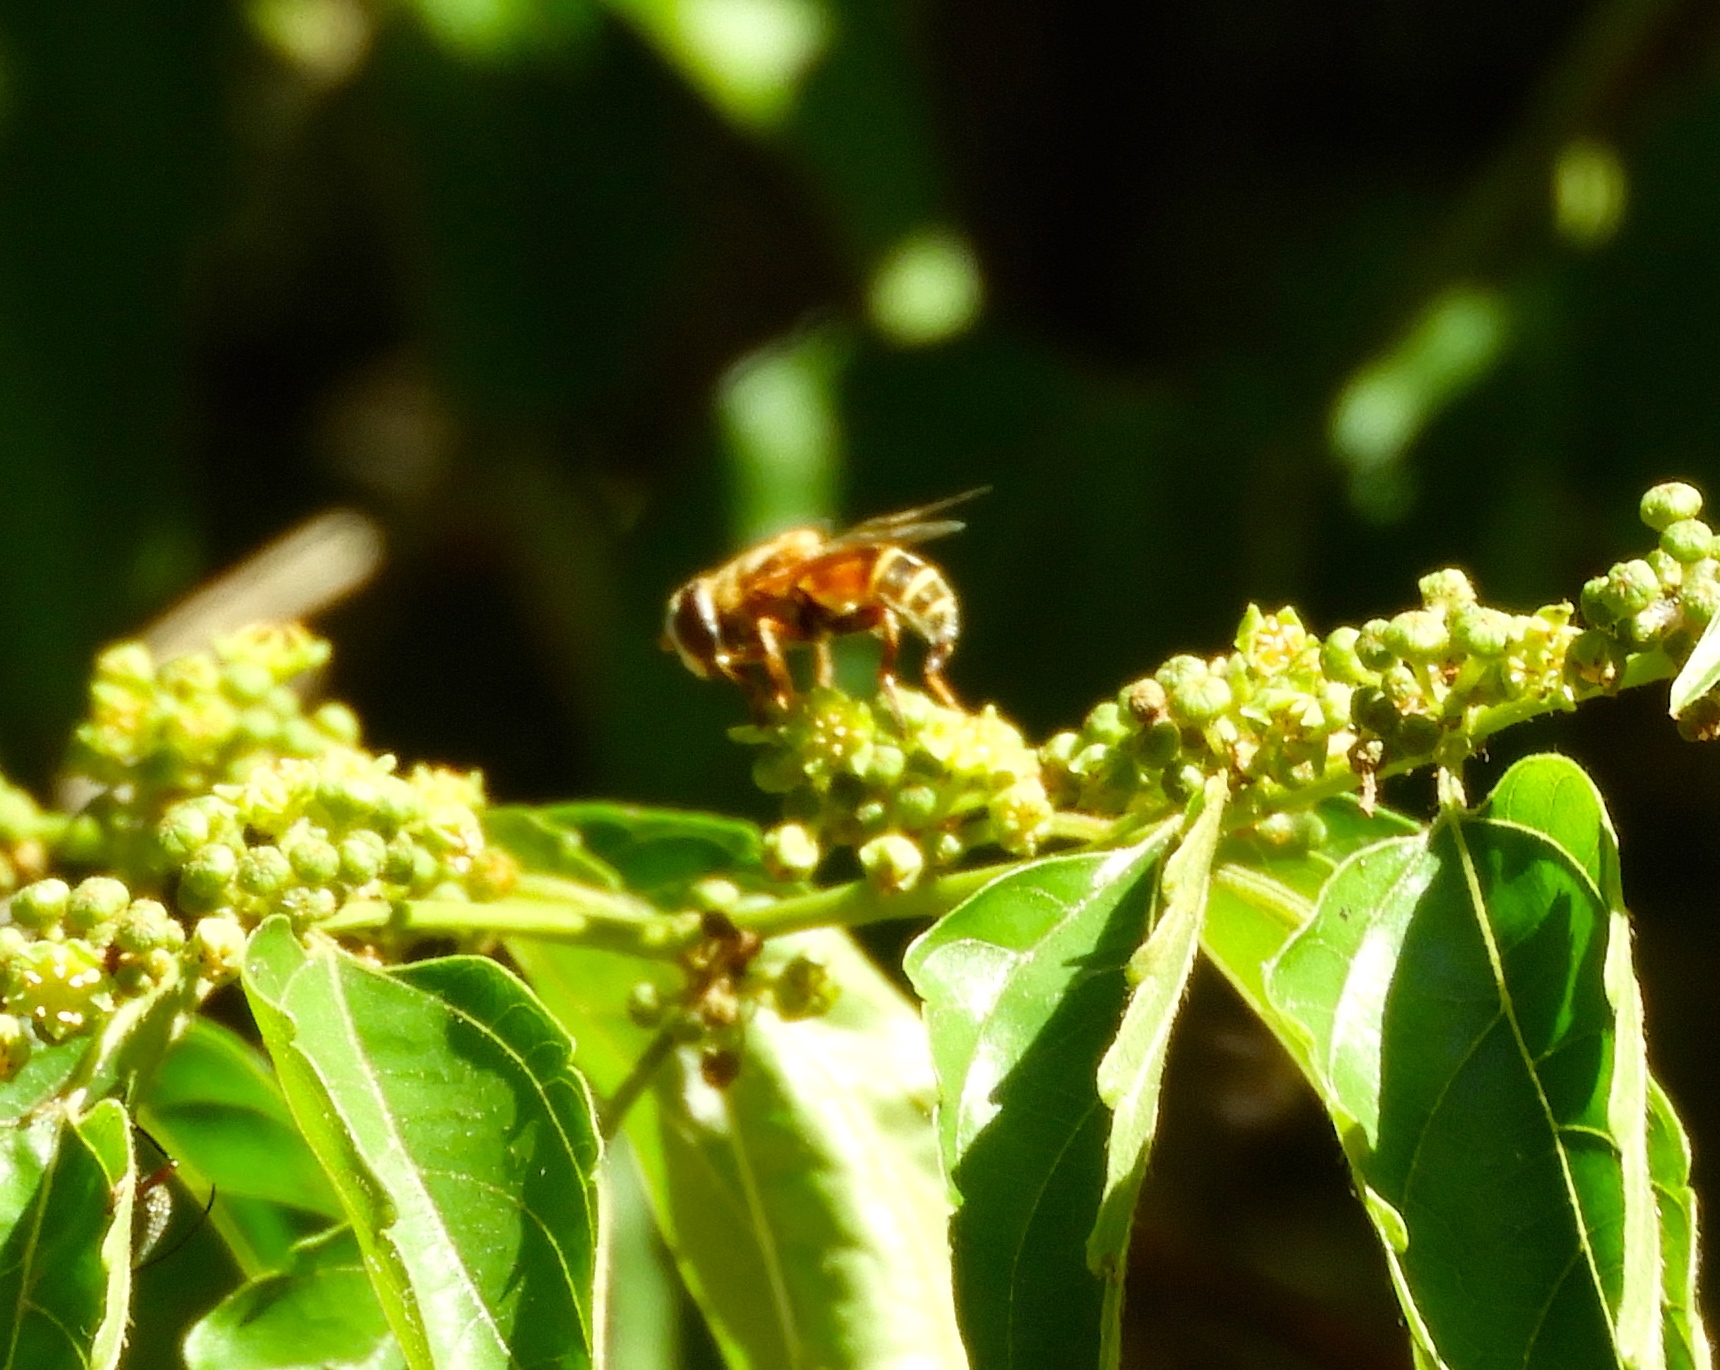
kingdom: Animalia
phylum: Arthropoda
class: Insecta
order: Diptera
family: Syrphidae
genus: Palpada
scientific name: Palpada
